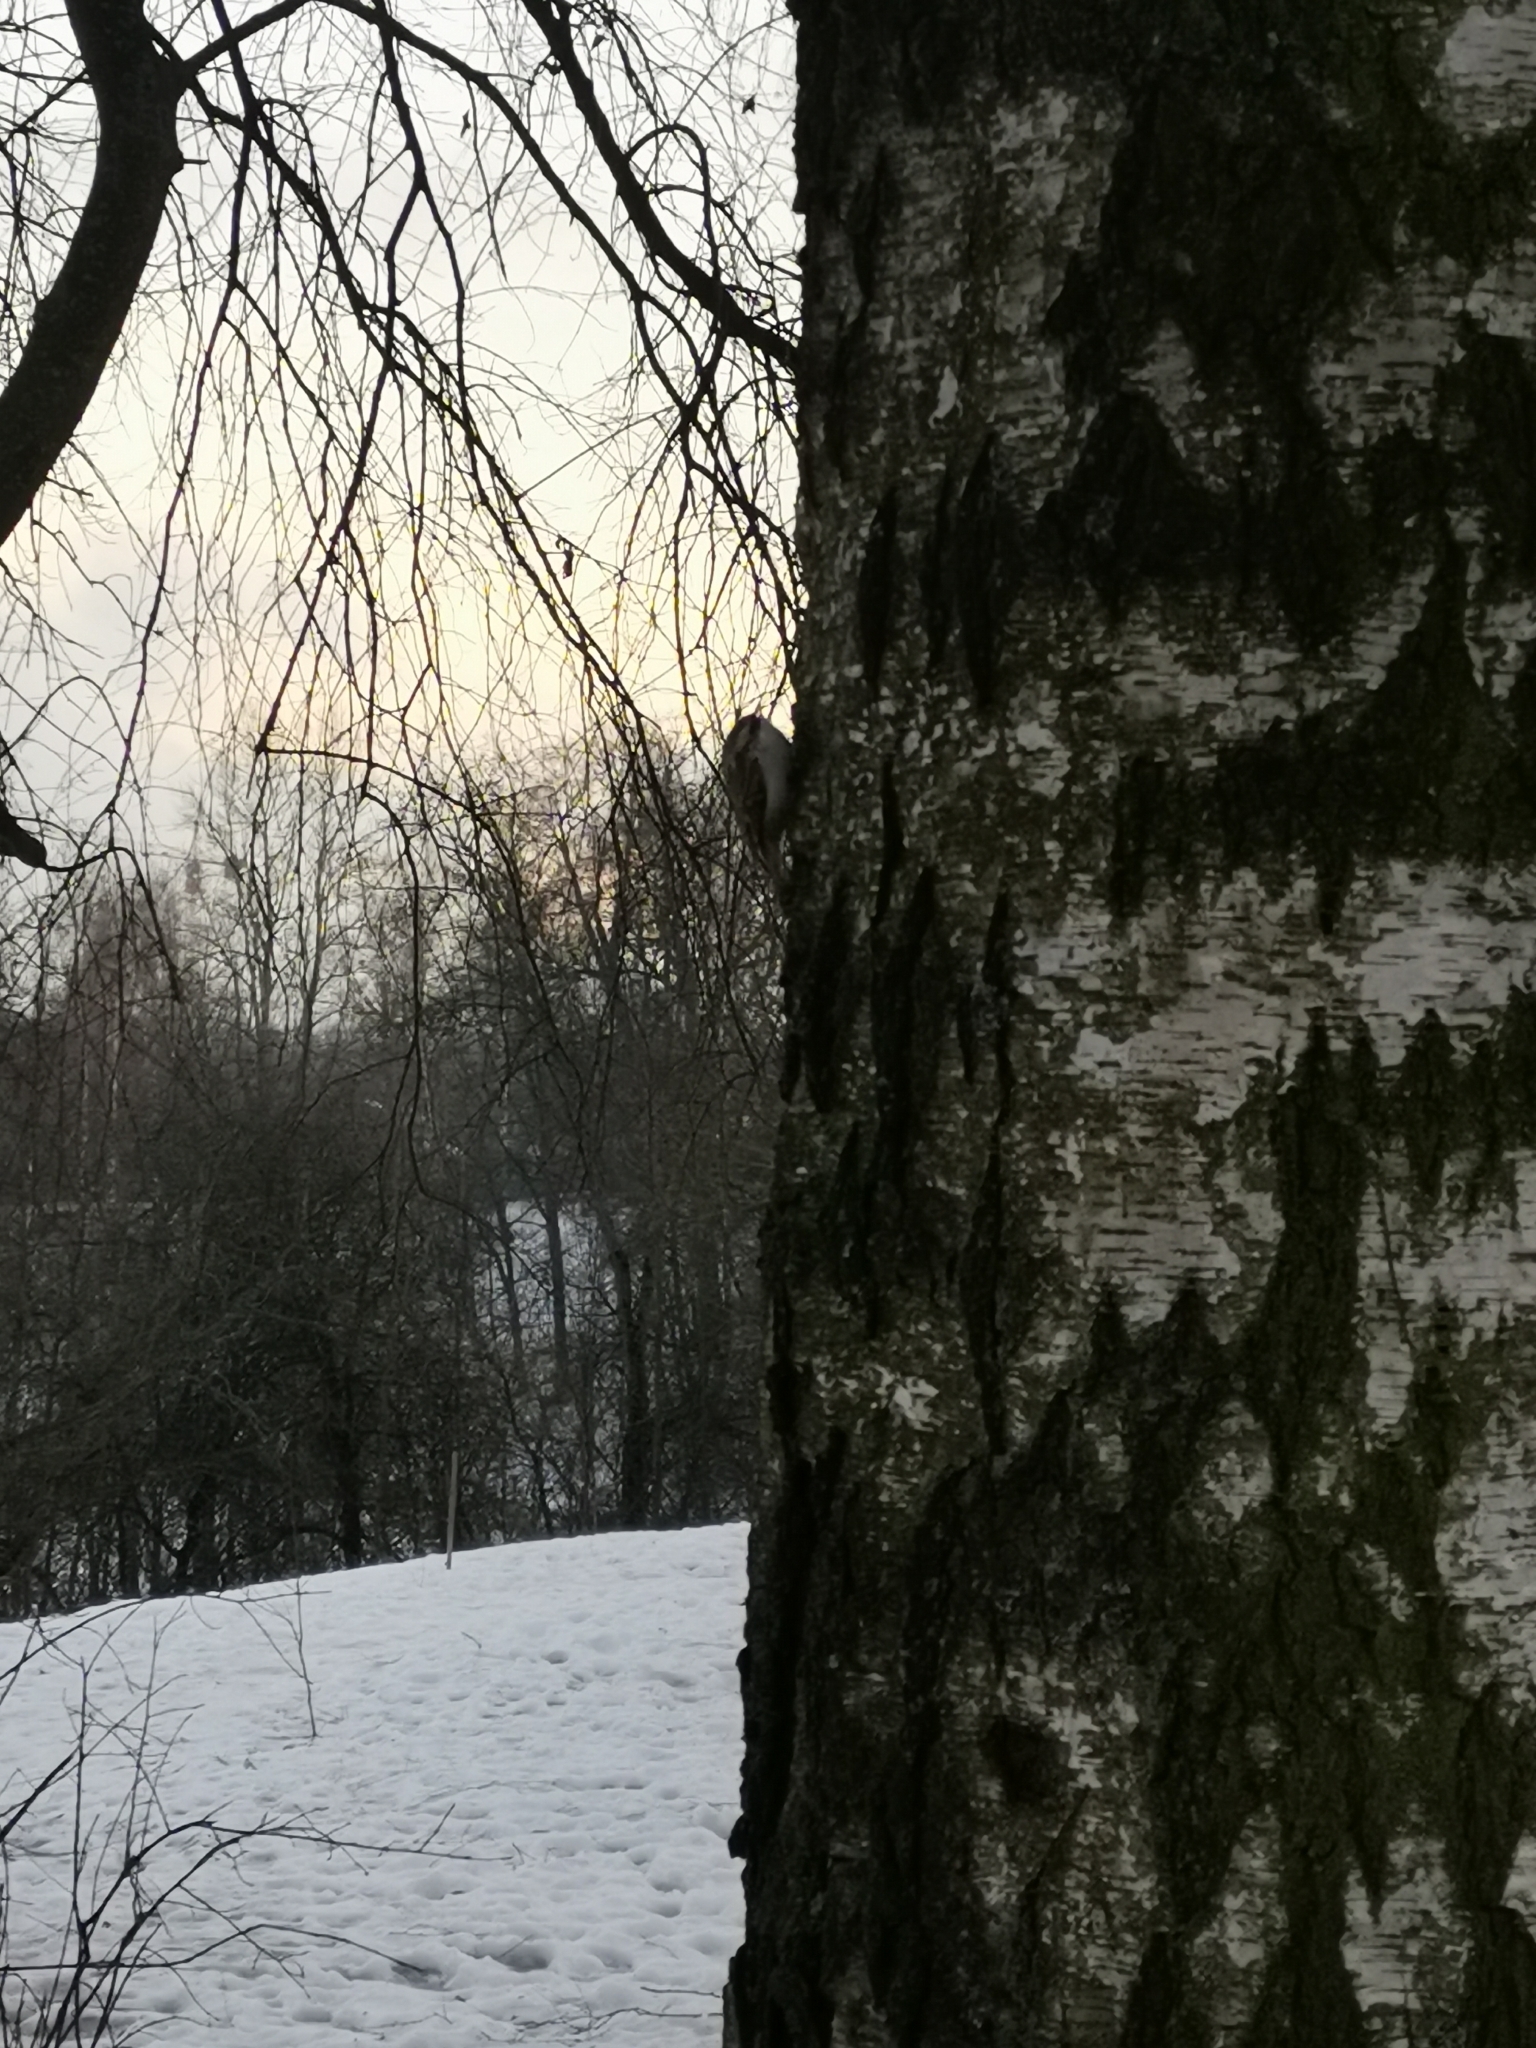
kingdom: Animalia
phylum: Chordata
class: Aves
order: Passeriformes
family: Certhiidae
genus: Certhia
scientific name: Certhia familiaris
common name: Eurasian treecreeper
